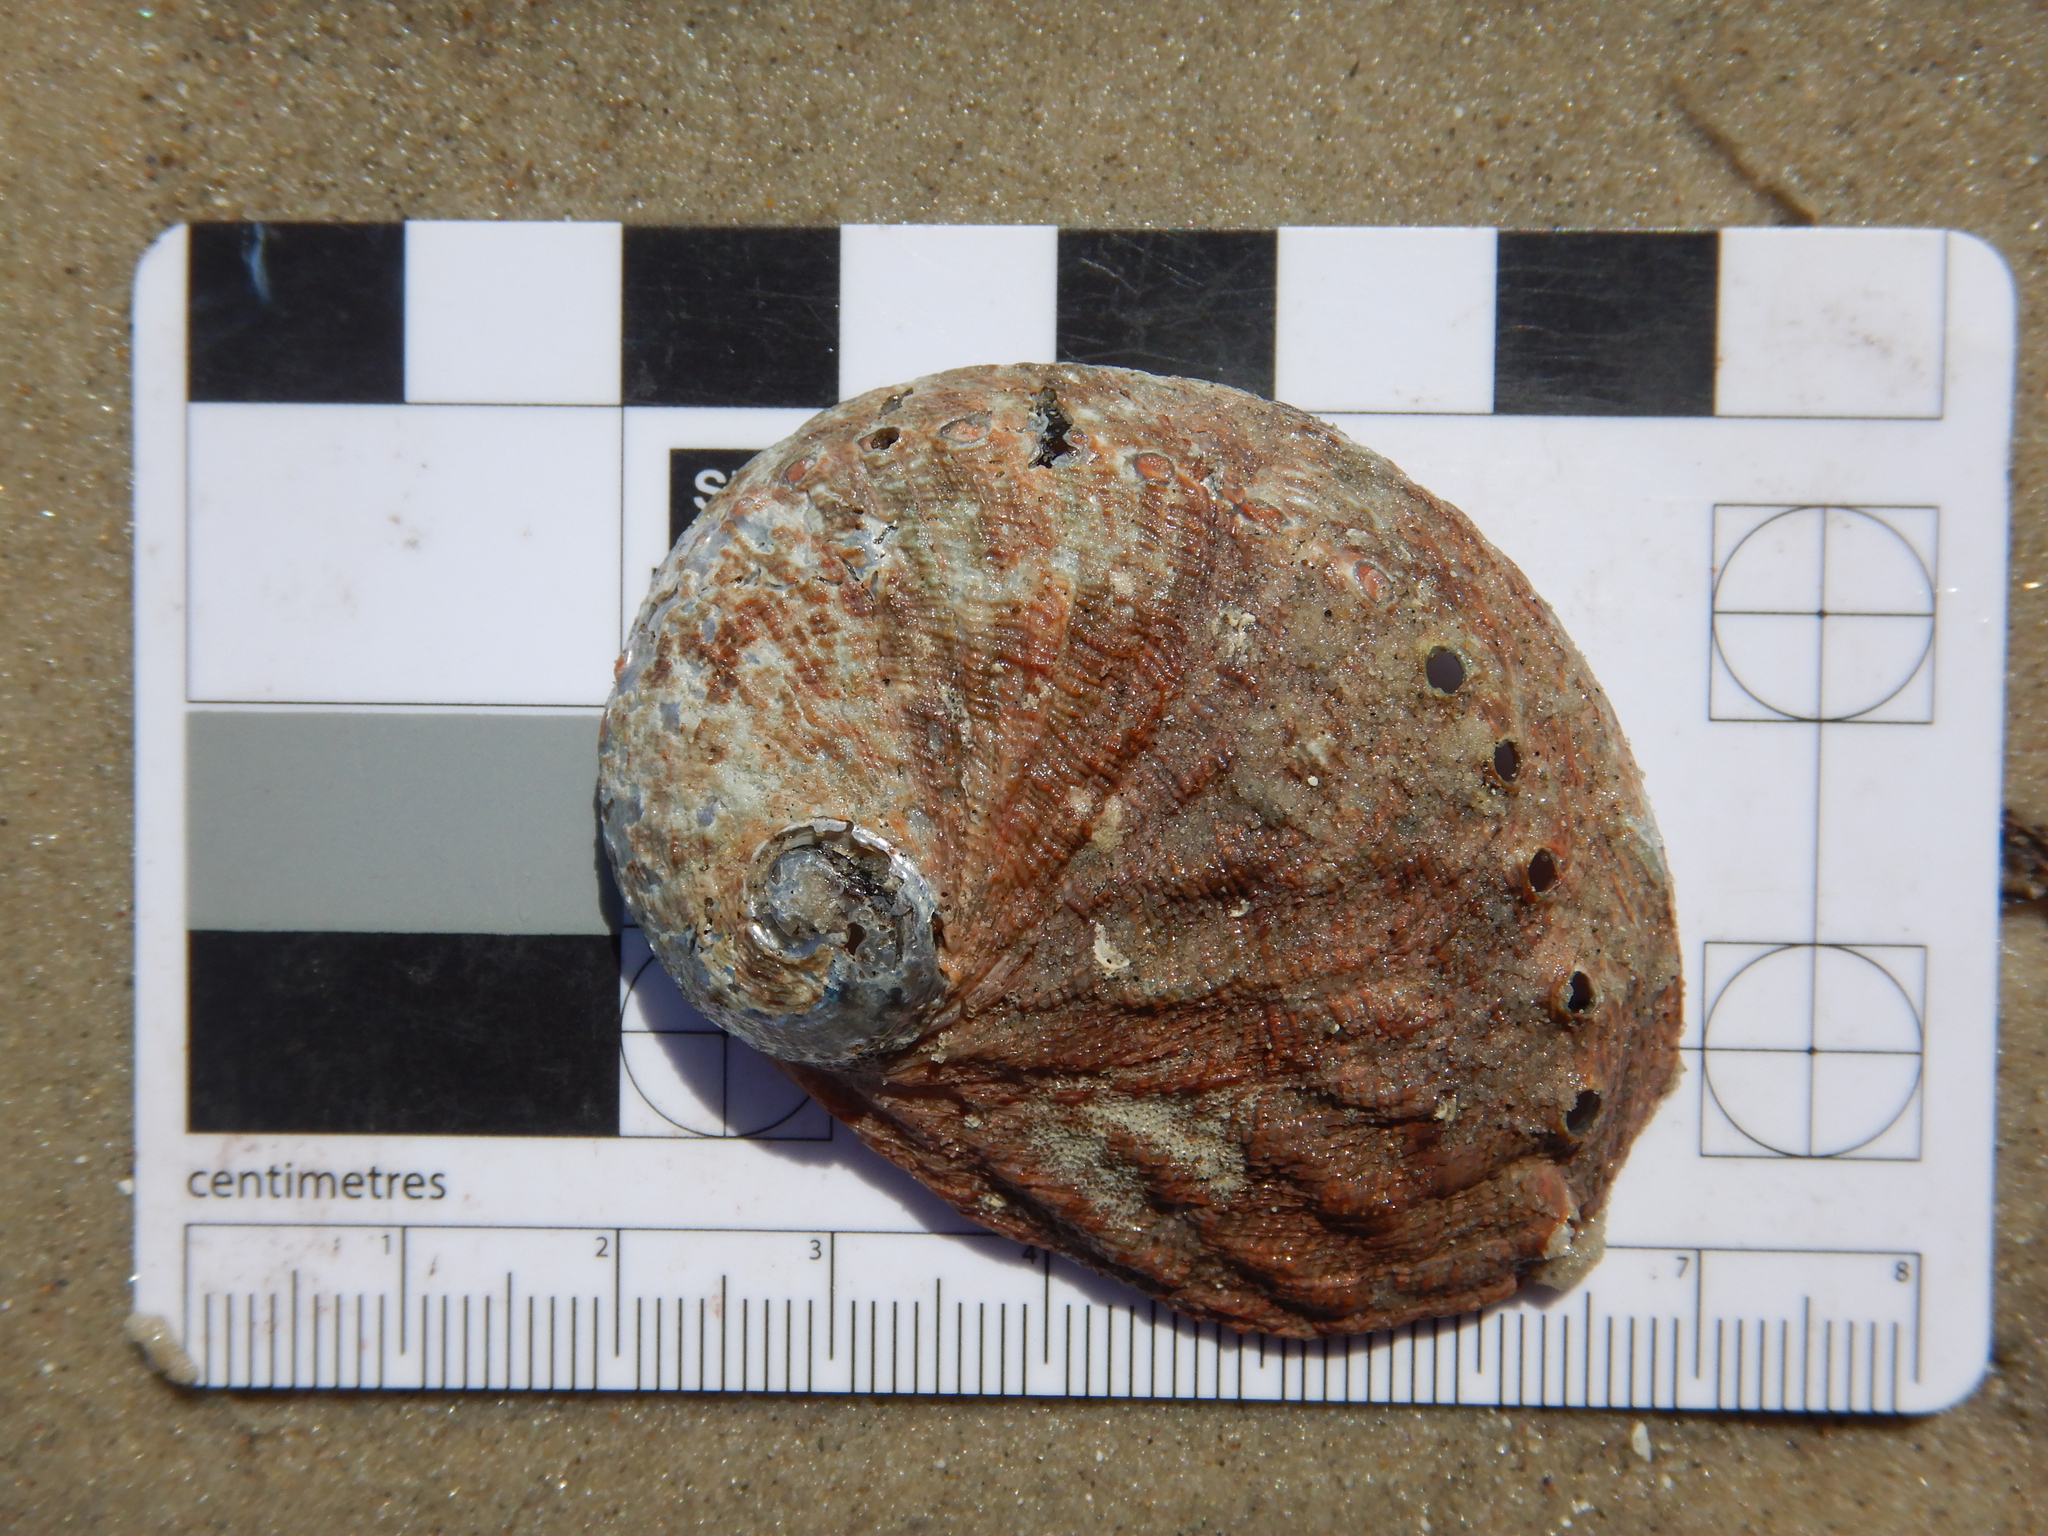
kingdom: Animalia
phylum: Mollusca
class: Gastropoda
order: Lepetellida
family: Haliotidae
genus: Haliotis
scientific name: Haliotis rubra
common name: Blacklip abalone
